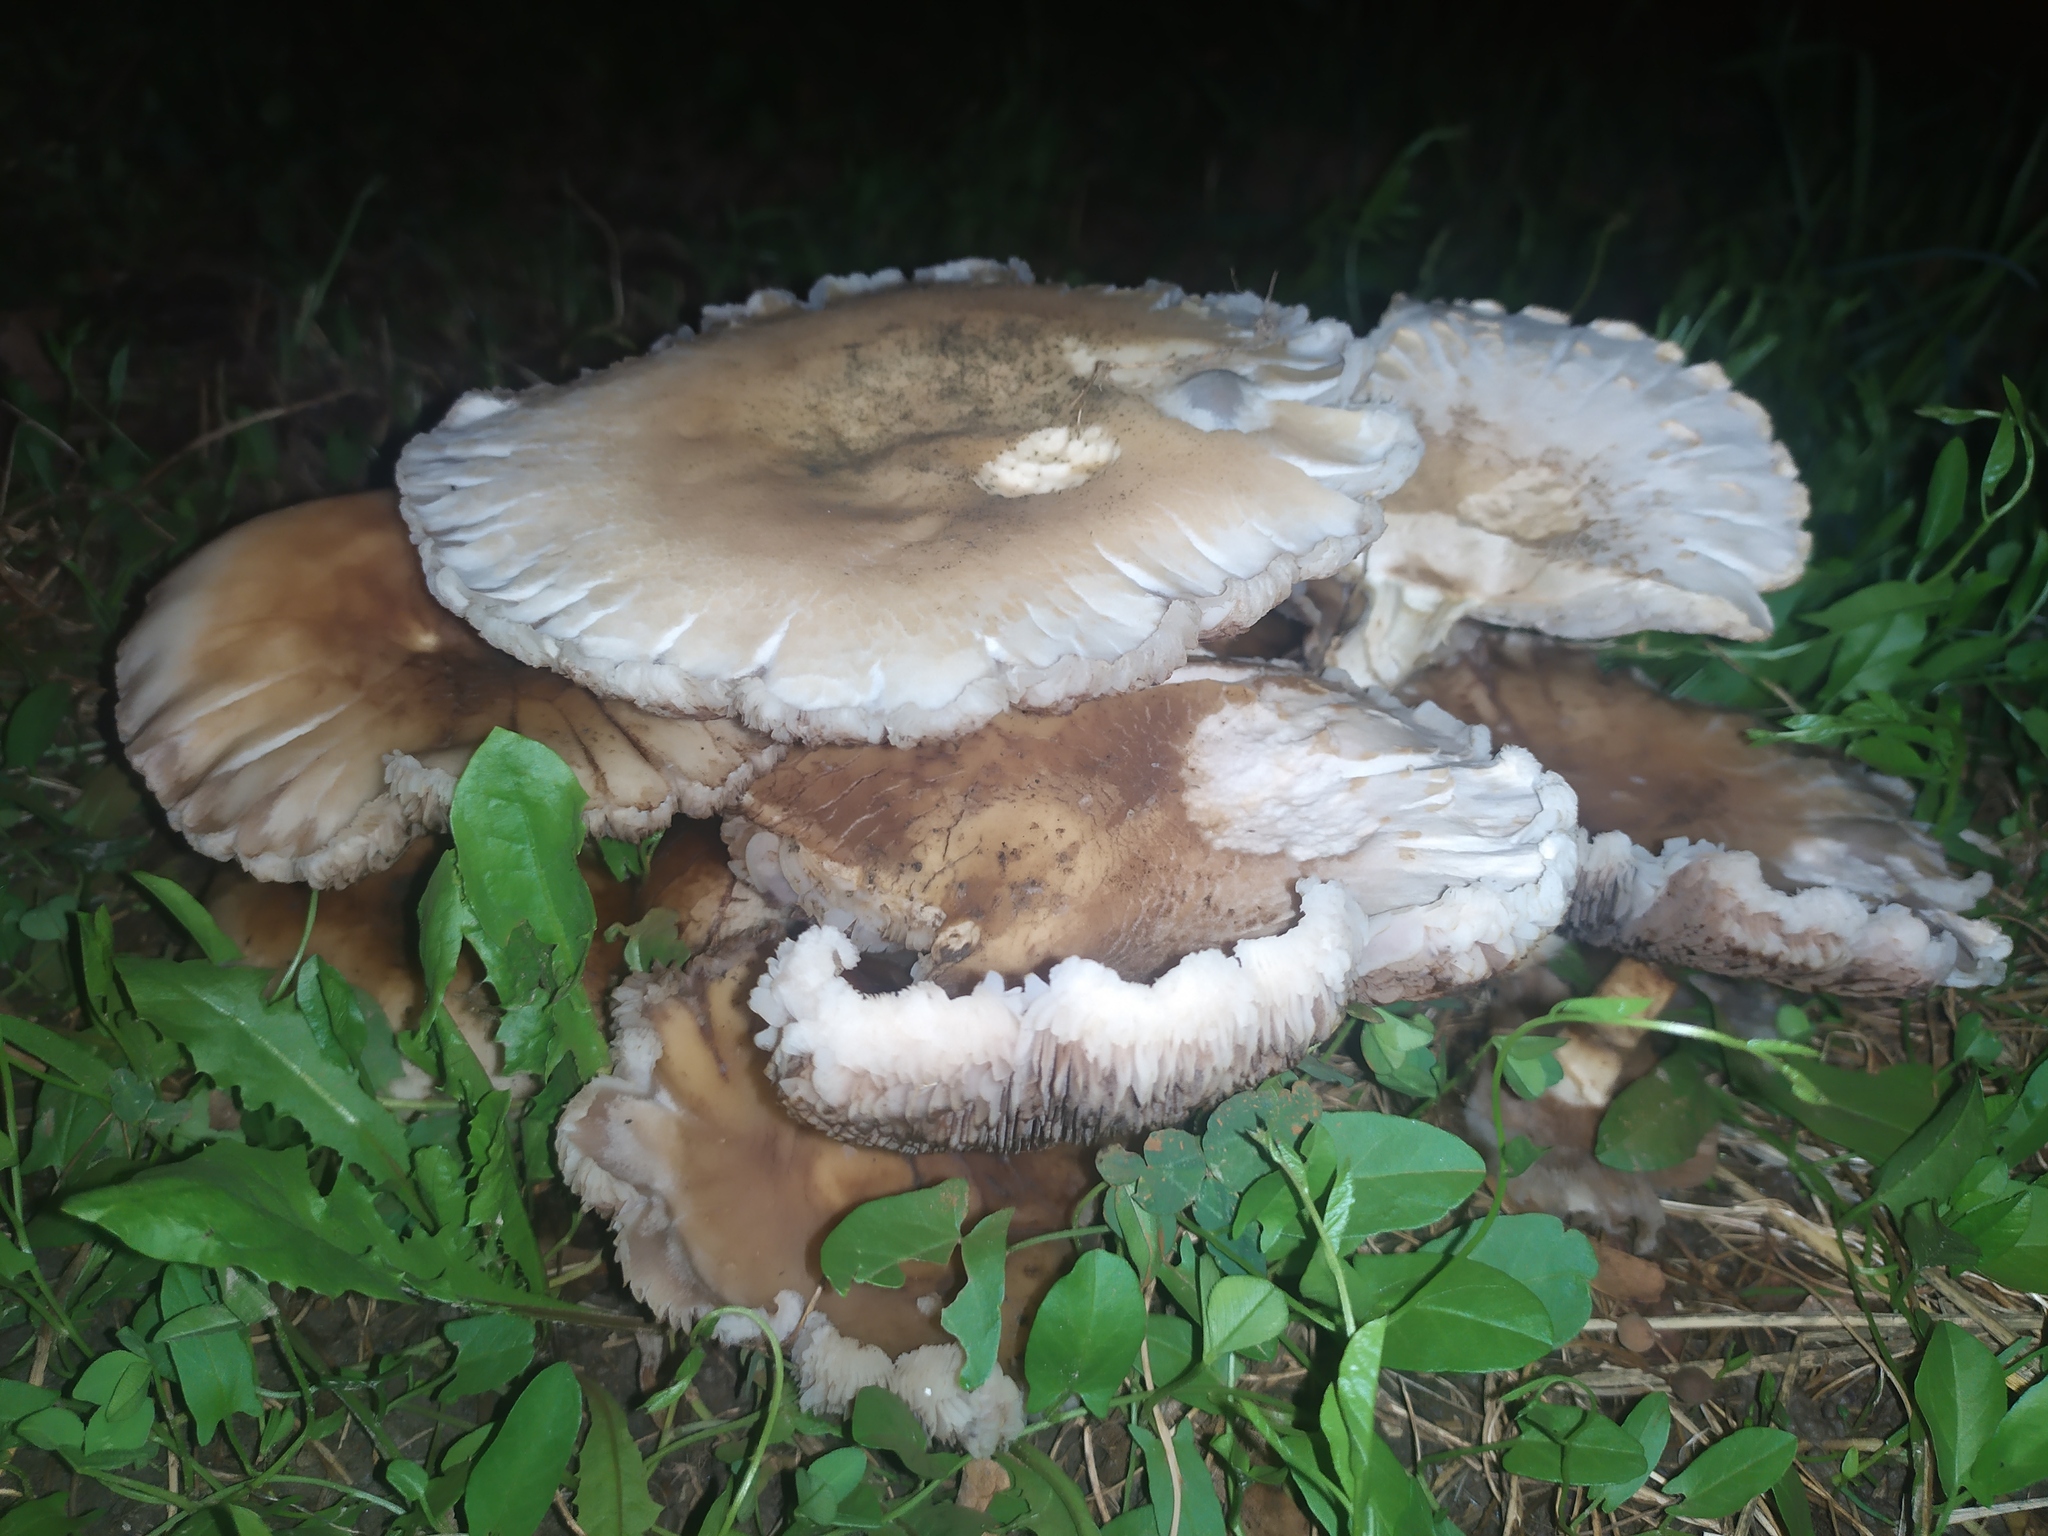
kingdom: Fungi
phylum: Basidiomycota
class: Agaricomycetes
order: Agaricales
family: Tubariaceae
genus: Cyclocybe
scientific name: Cyclocybe cylindracea
